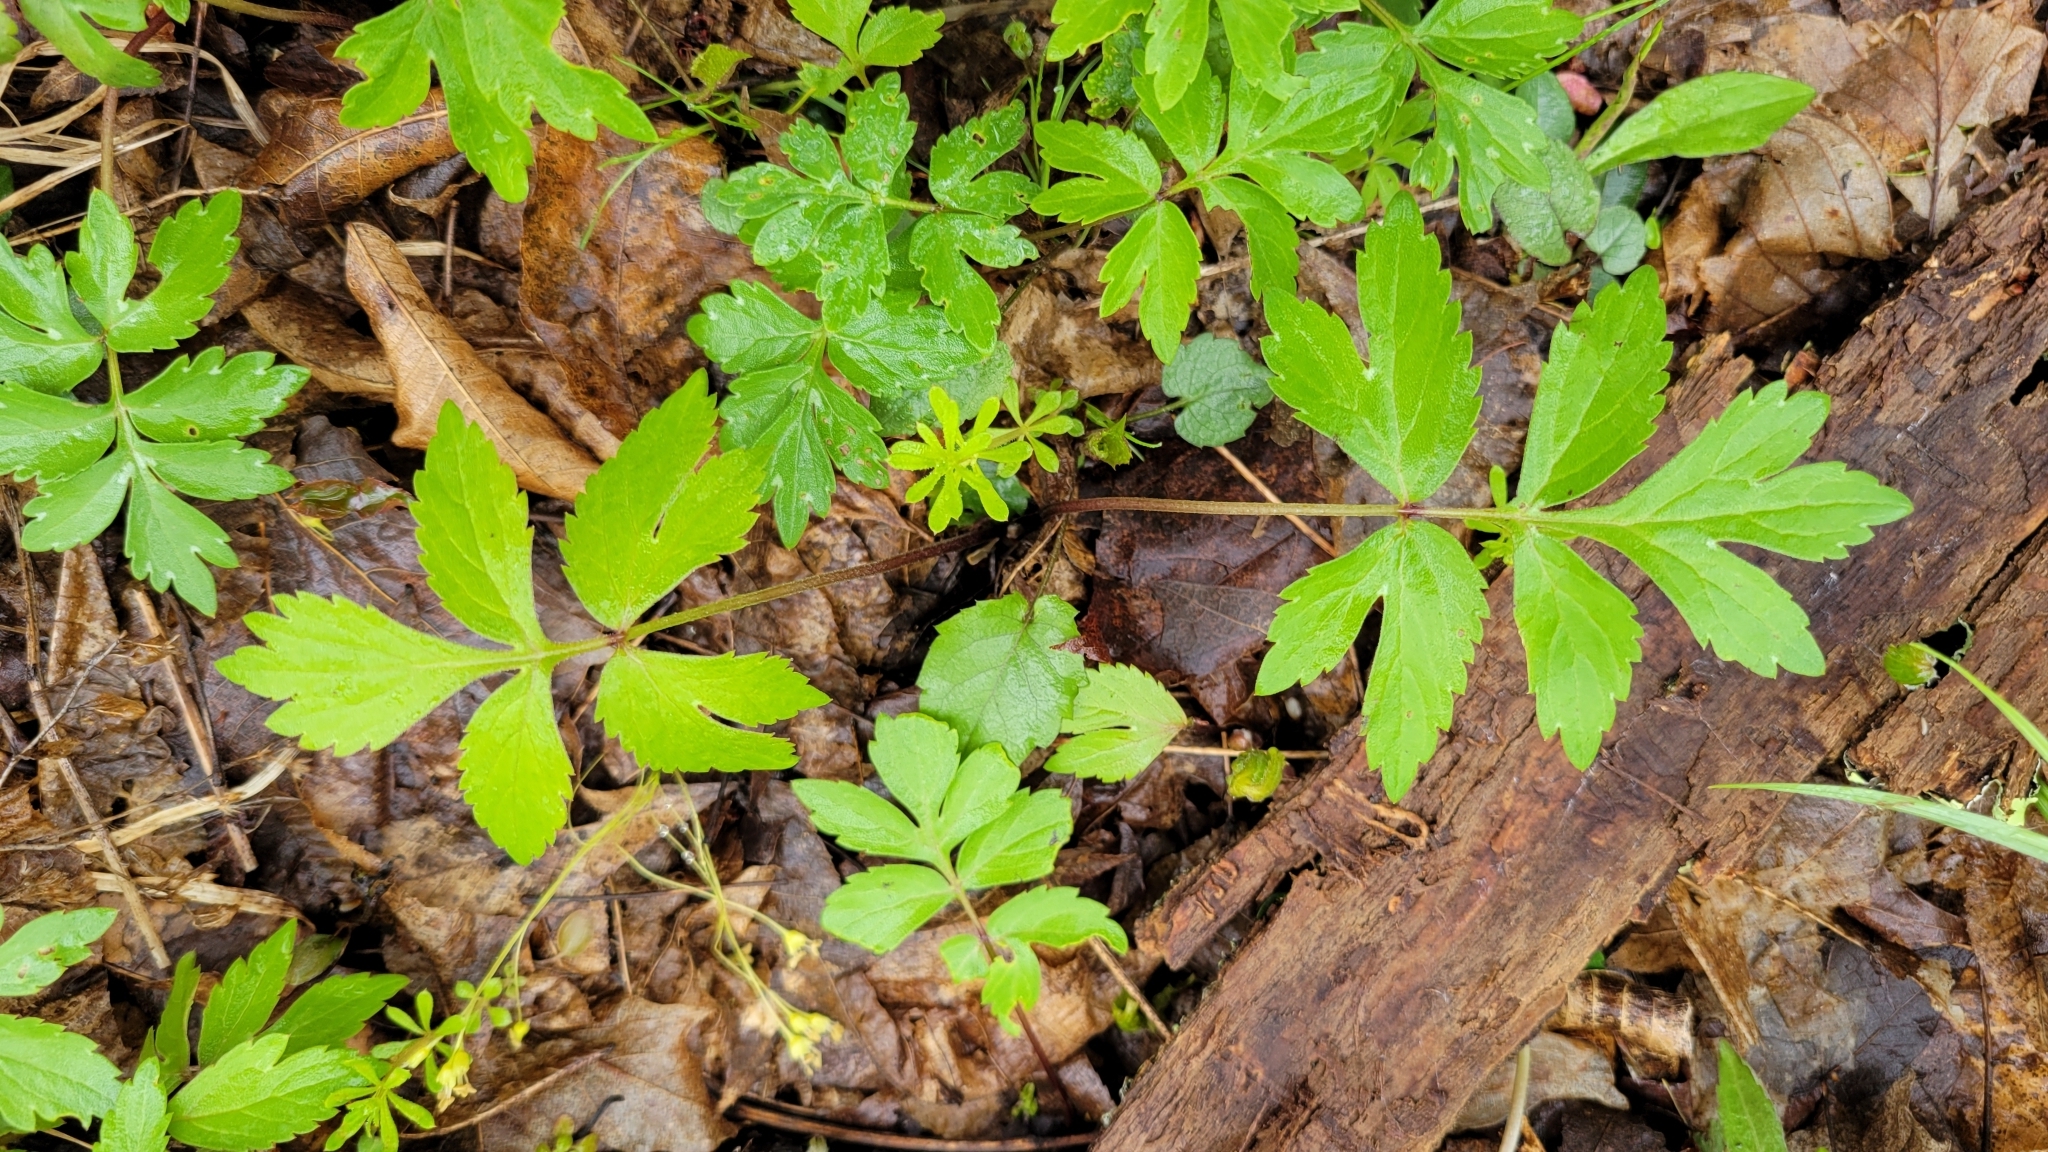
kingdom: Plantae
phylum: Tracheophyta
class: Magnoliopsida
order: Boraginales
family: Hydrophyllaceae
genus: Hydrophyllum
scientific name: Hydrophyllum virginianum
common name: Virginia waterleaf
